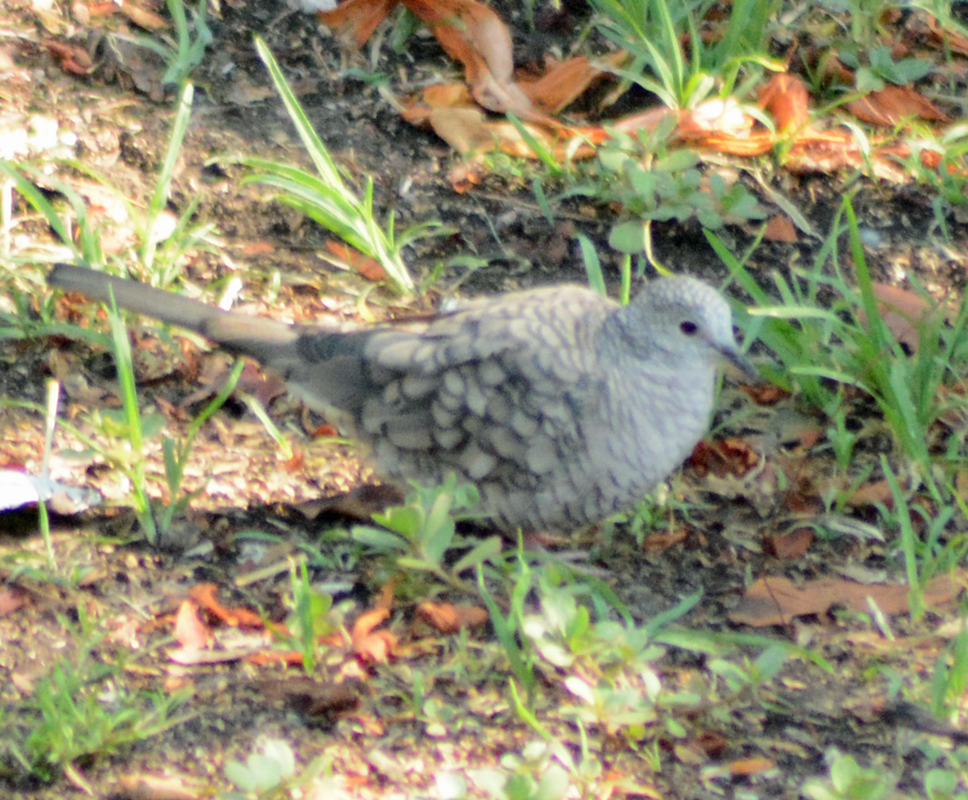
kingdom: Animalia
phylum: Chordata
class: Aves
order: Columbiformes
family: Columbidae
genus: Columbina
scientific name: Columbina inca
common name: Inca dove
